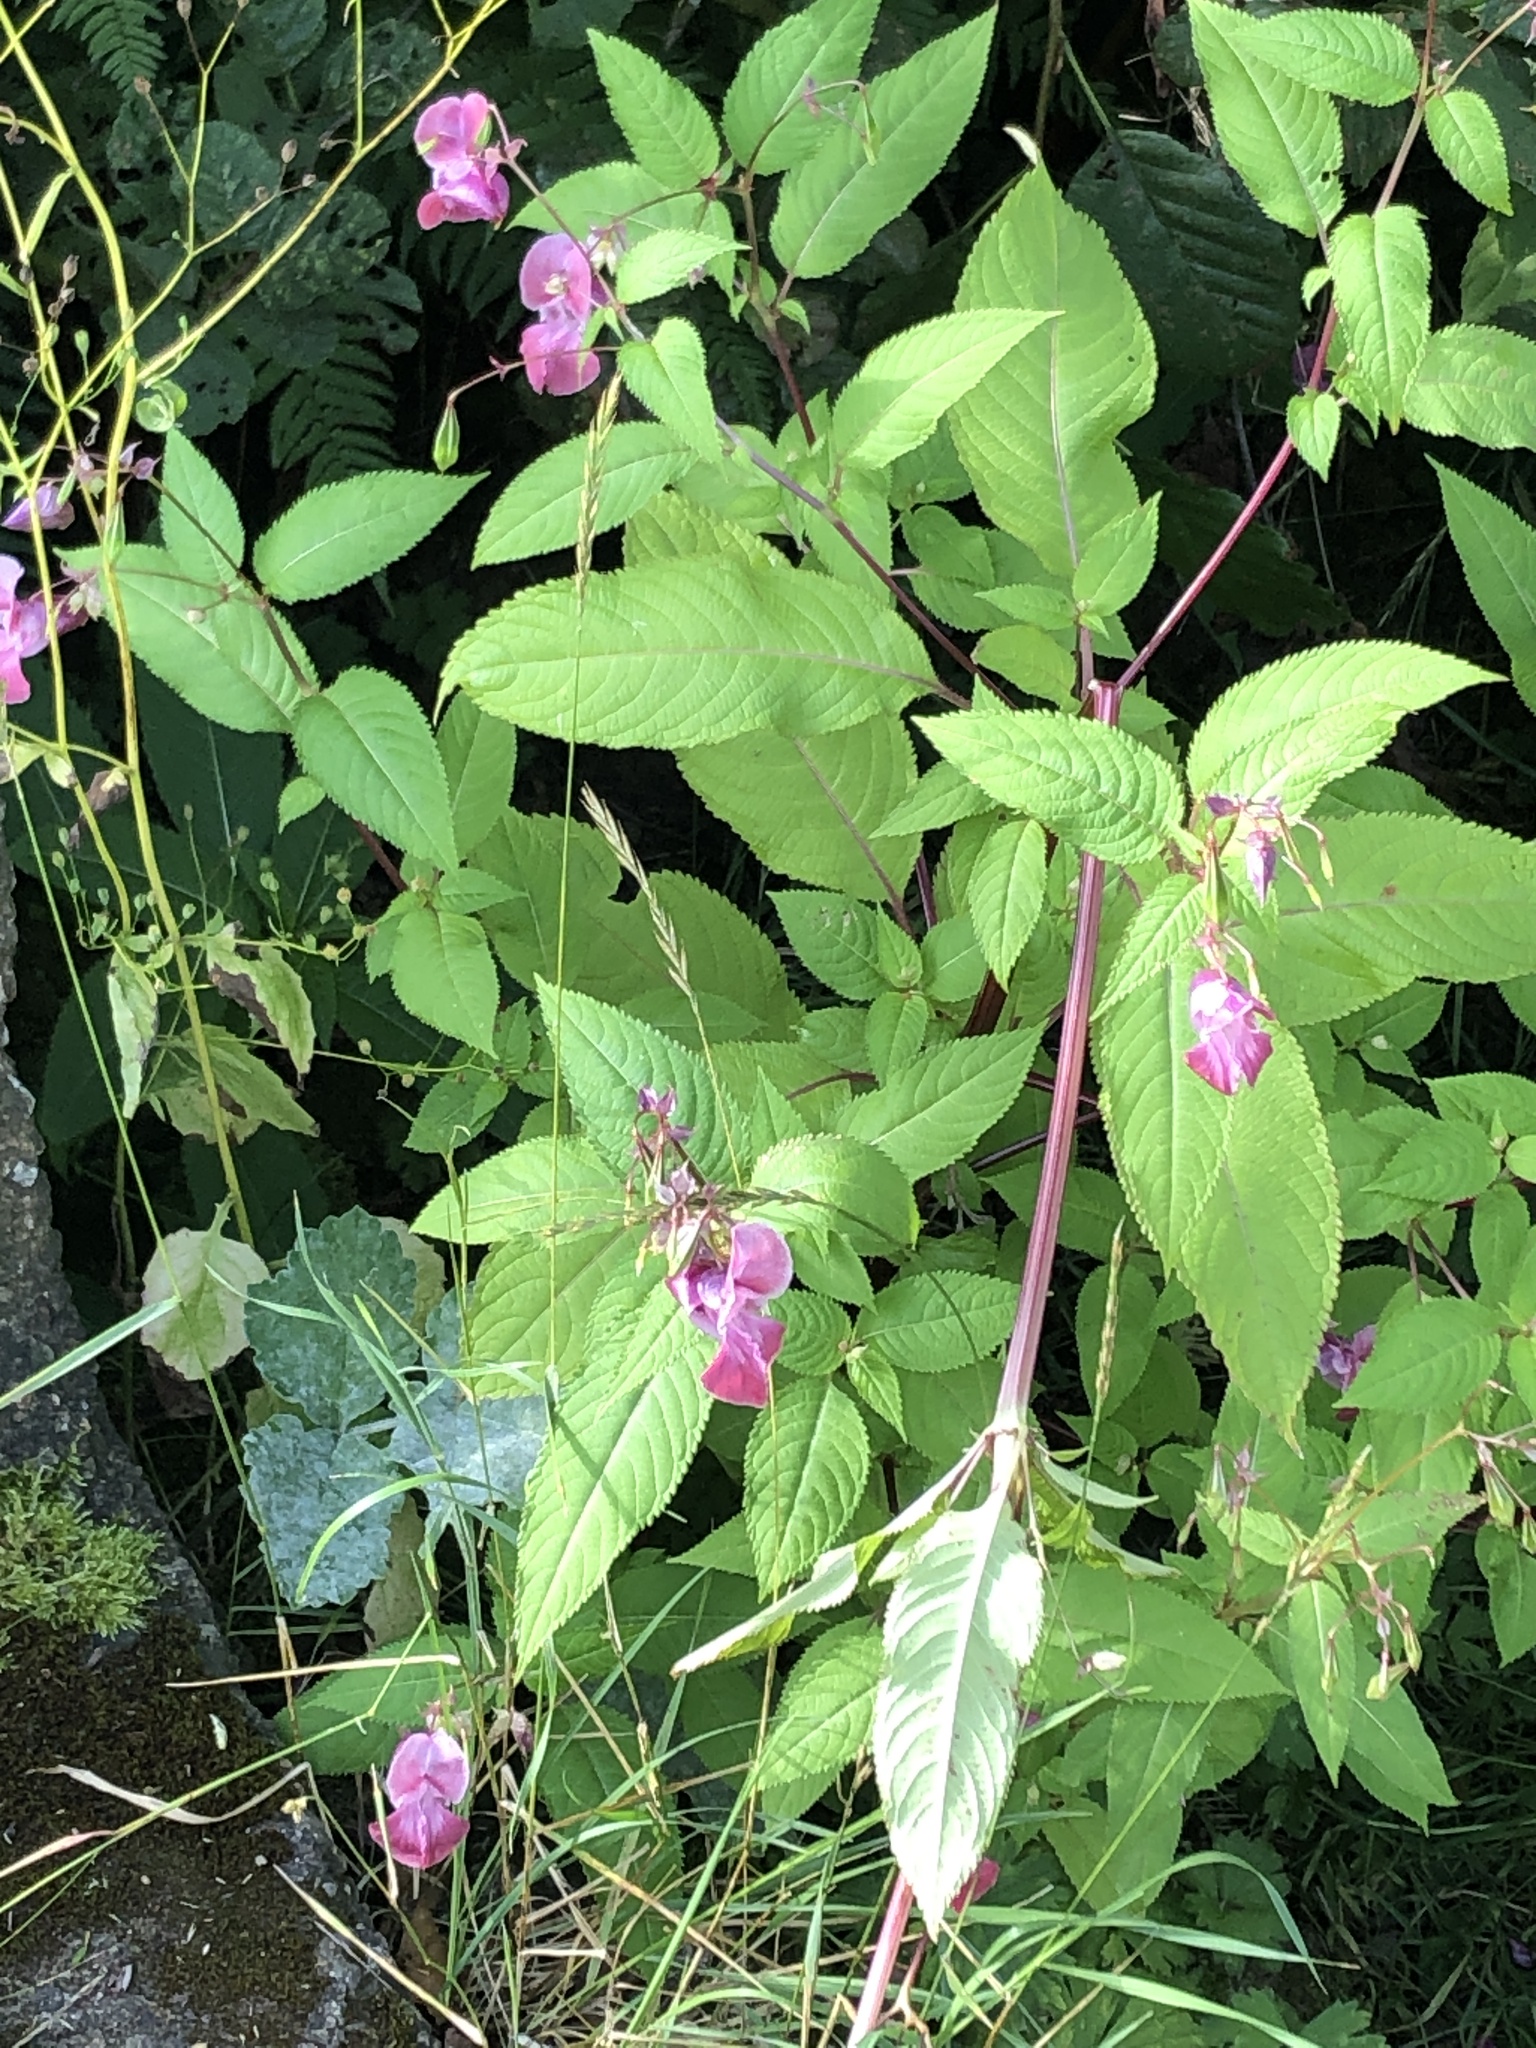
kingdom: Plantae
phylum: Tracheophyta
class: Magnoliopsida
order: Ericales
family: Balsaminaceae
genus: Impatiens
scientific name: Impatiens glandulifera
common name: Himalayan balsam
